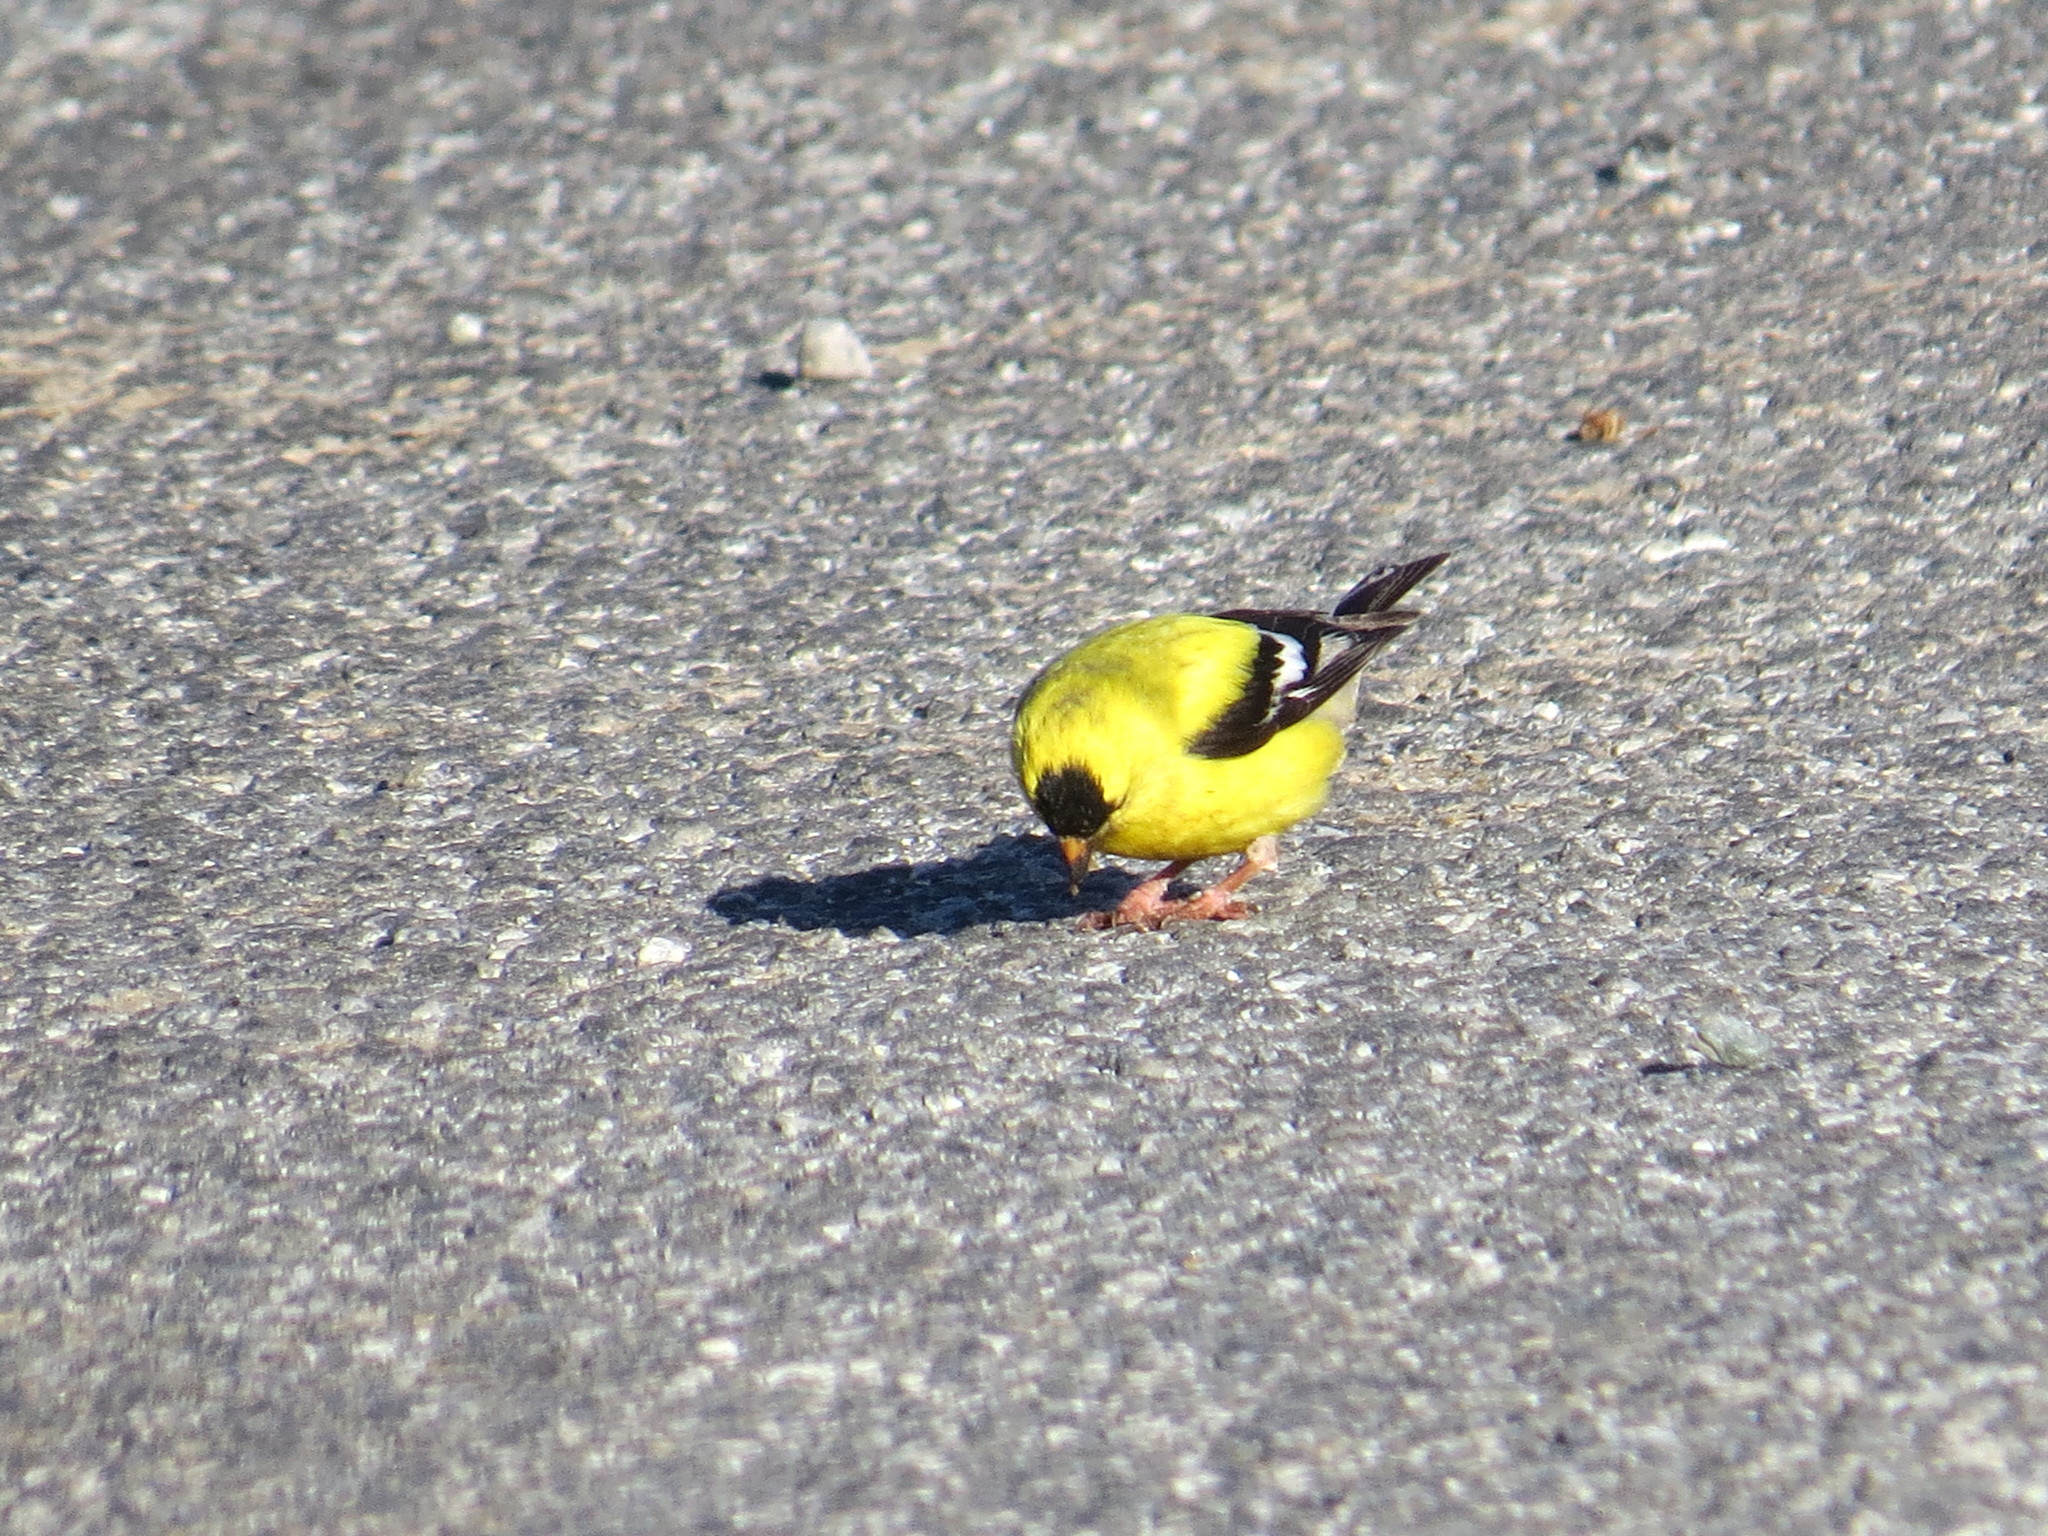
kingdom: Animalia
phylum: Chordata
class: Aves
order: Passeriformes
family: Fringillidae
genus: Spinus
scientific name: Spinus tristis
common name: American goldfinch
